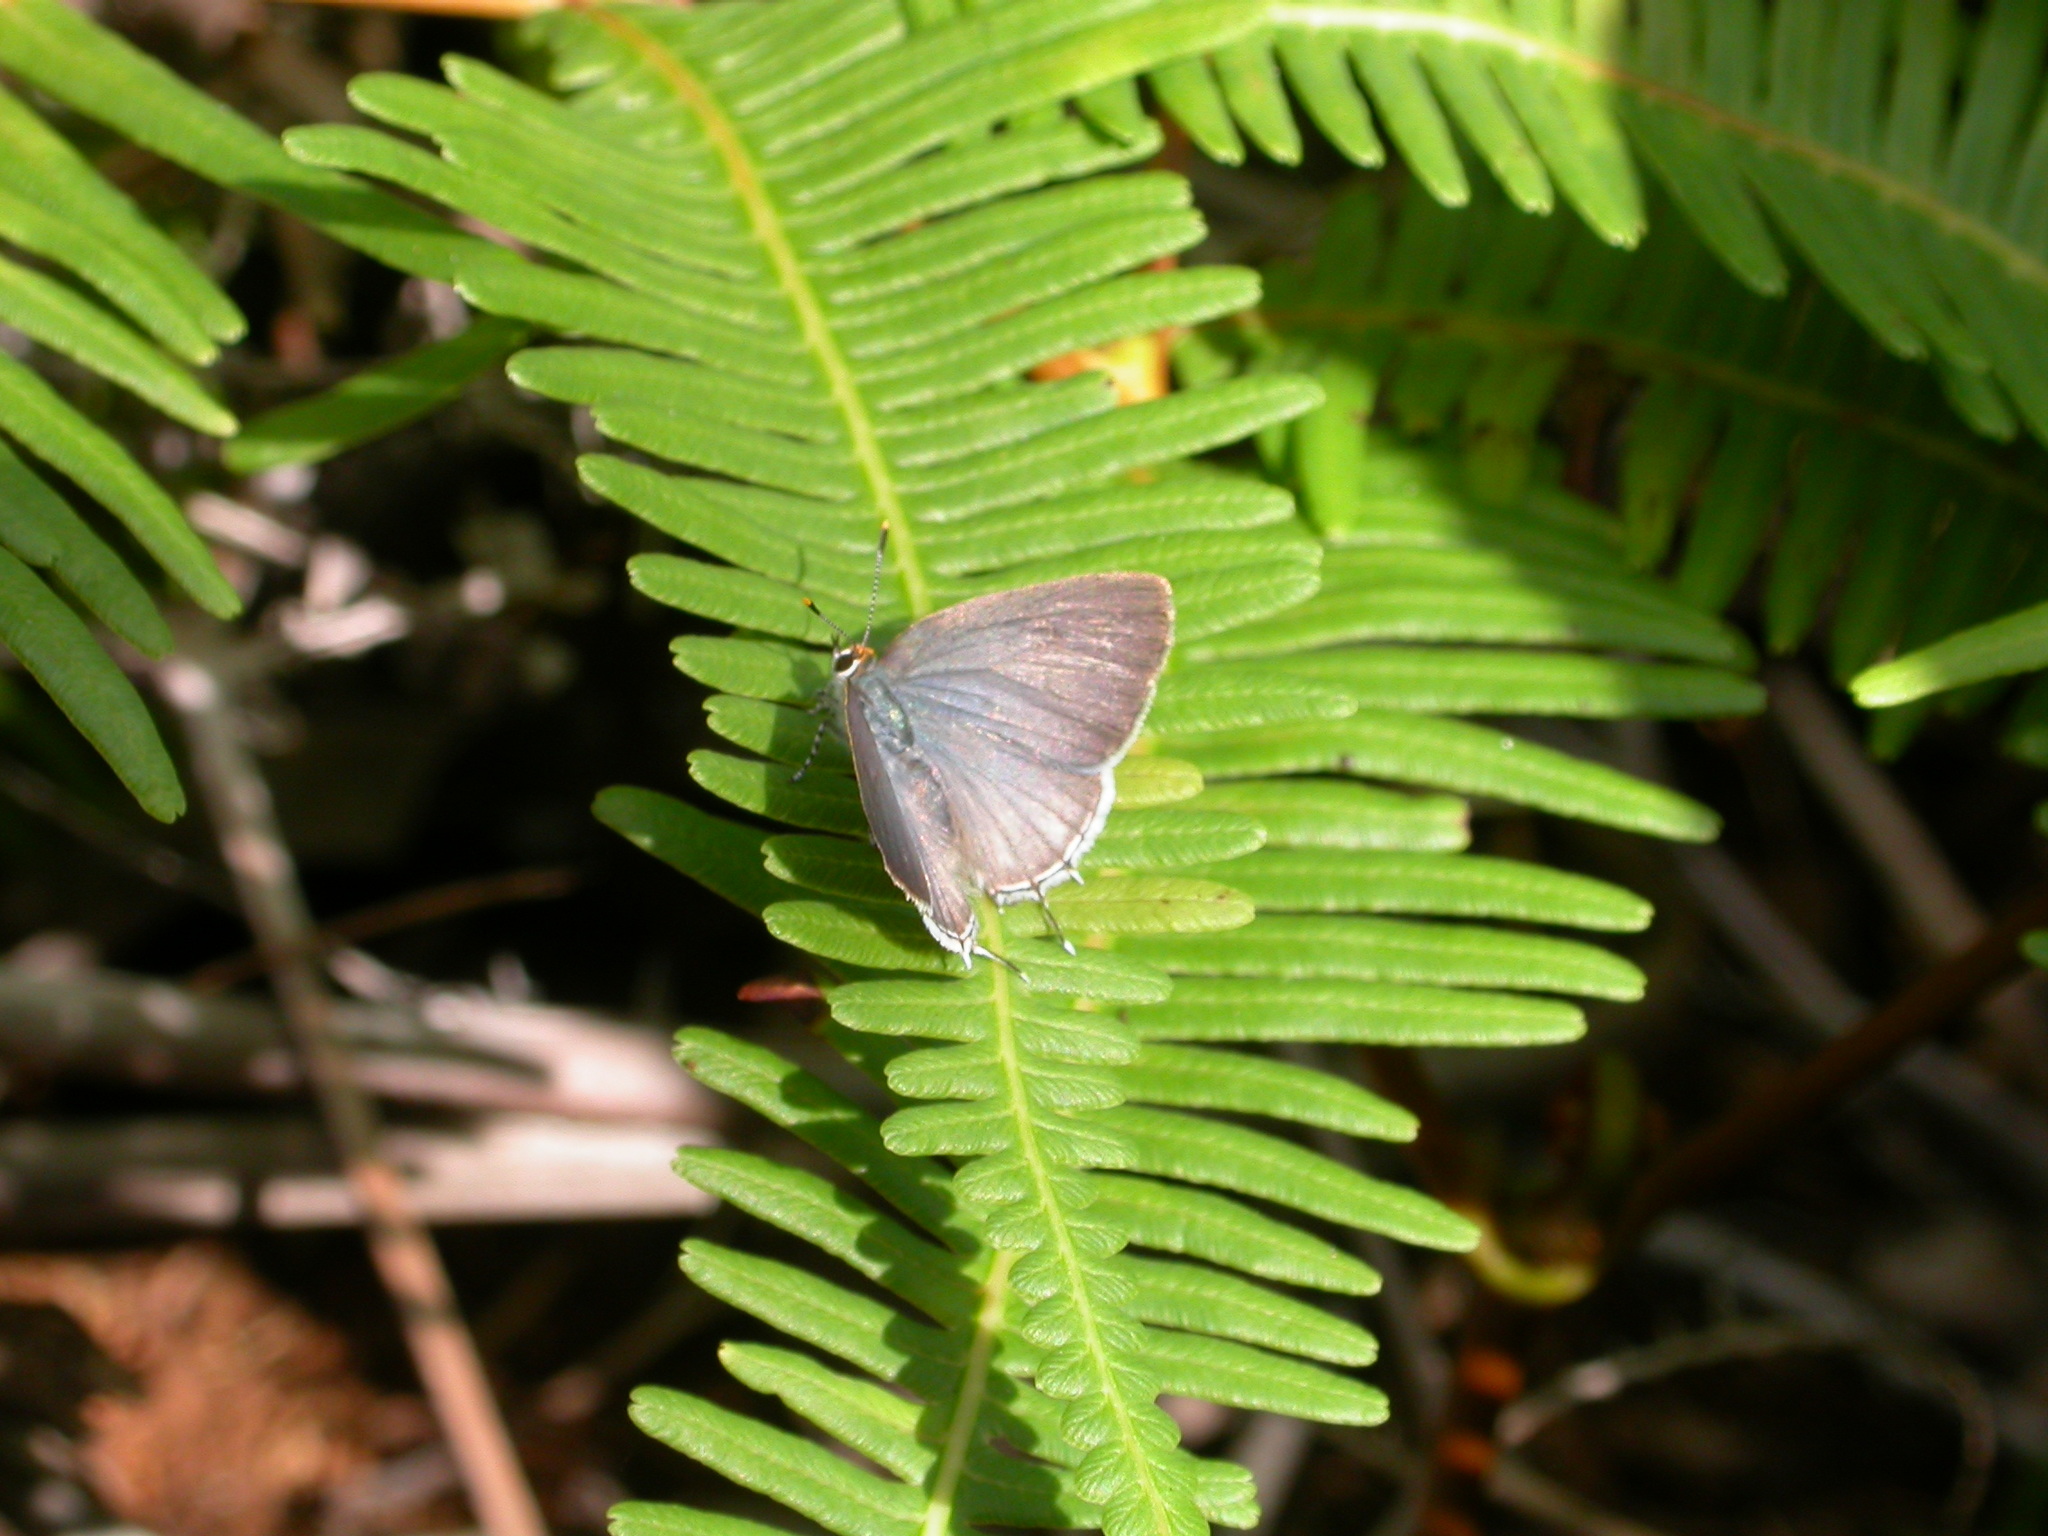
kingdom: Animalia
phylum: Arthropoda
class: Insecta
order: Lepidoptera
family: Lycaenidae
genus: Tmolus
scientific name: Tmolus echion
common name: Red-spotted hairstreak
